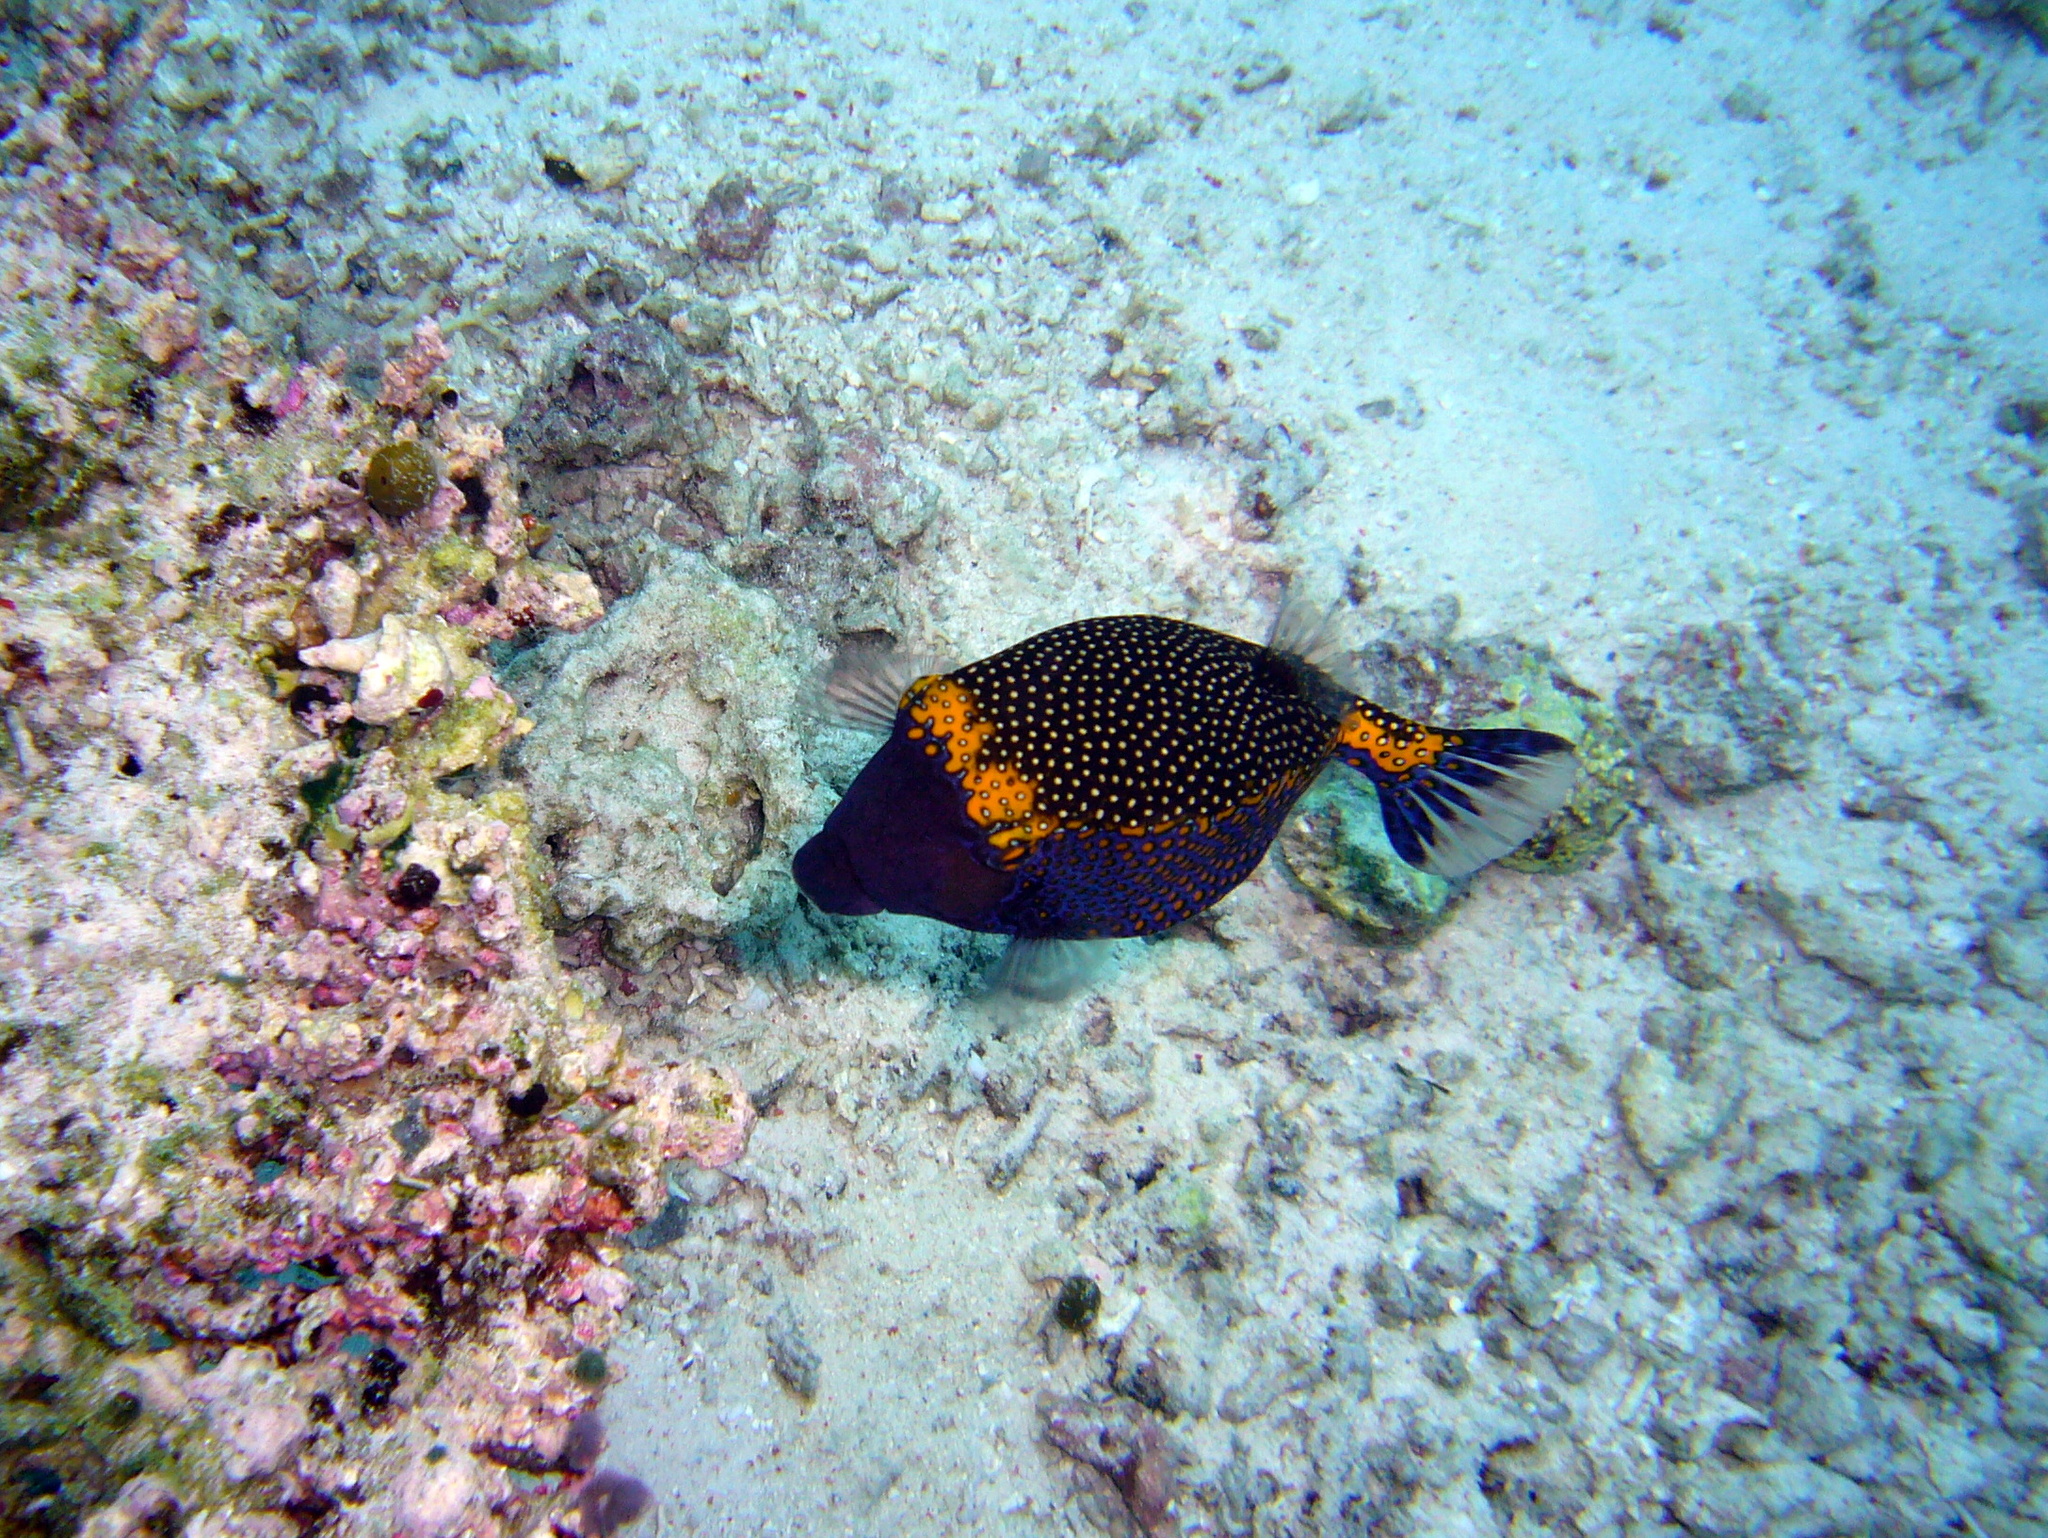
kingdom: Animalia
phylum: Chordata
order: Tetraodontiformes
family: Ostraciidae
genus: Ostracion
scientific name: Ostracion meleagris
